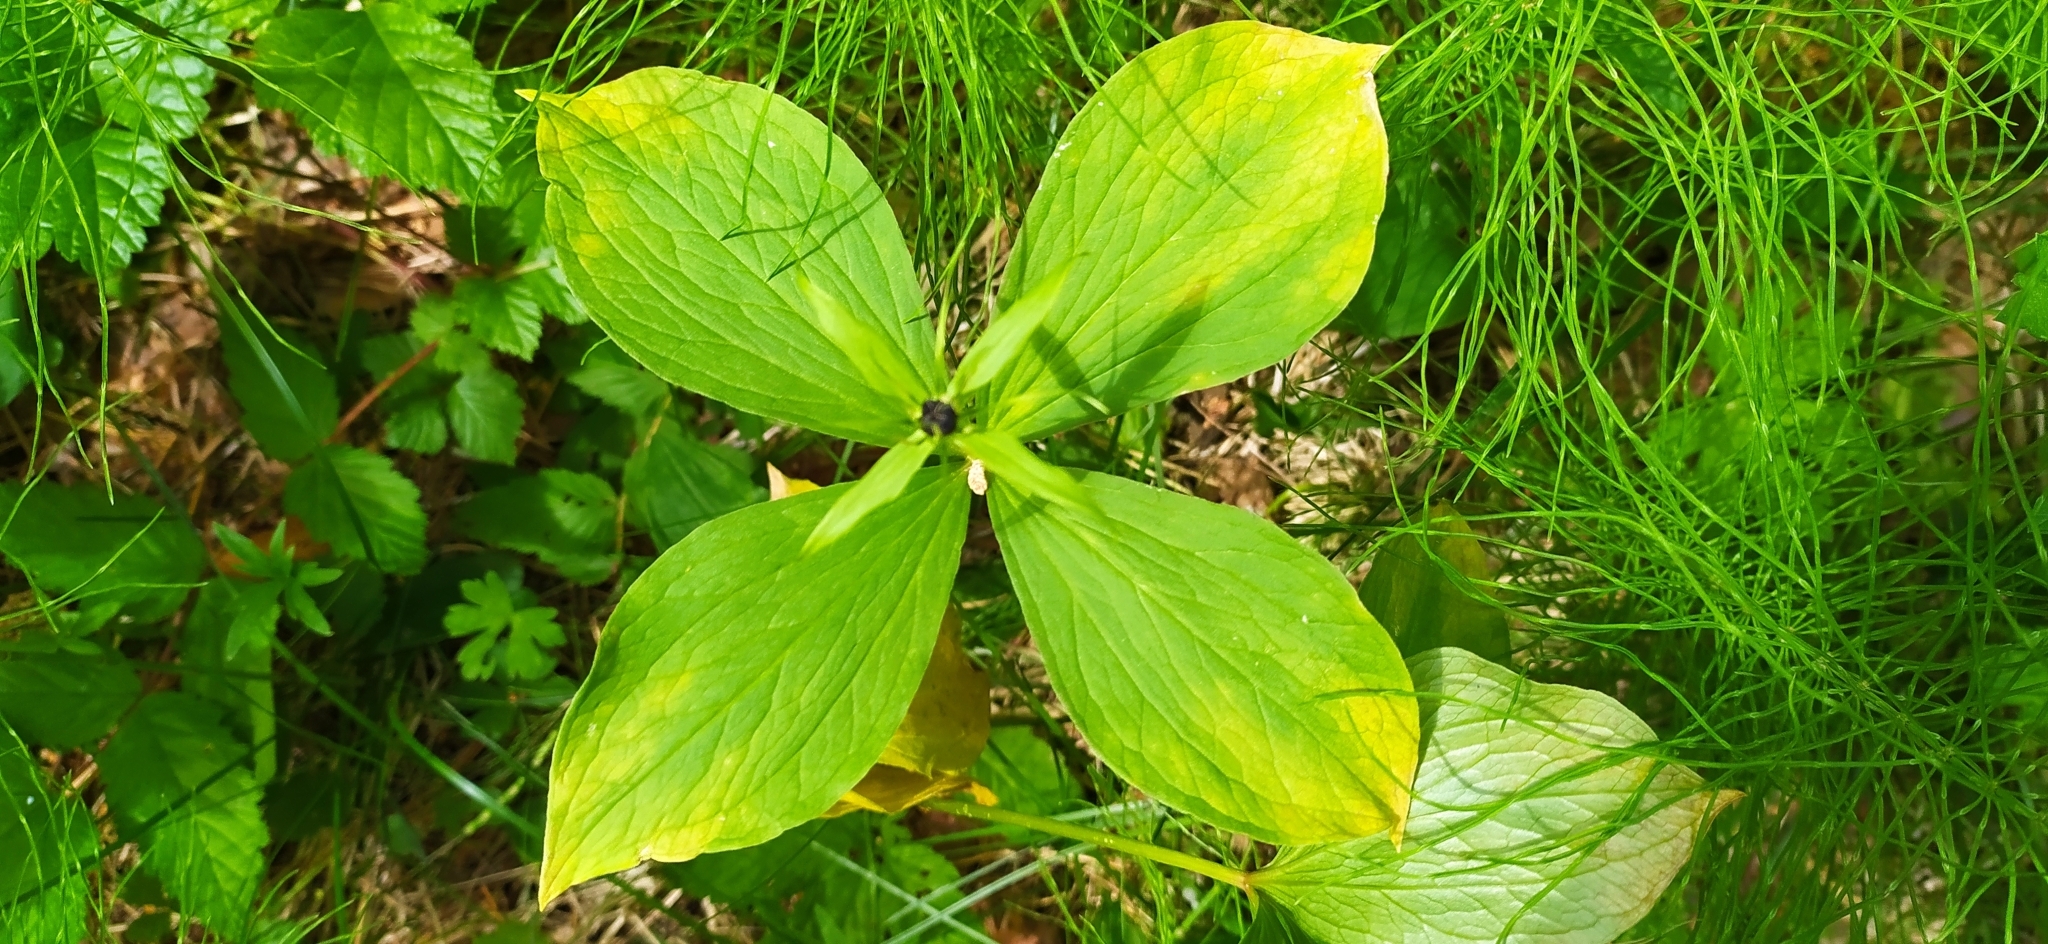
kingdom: Plantae
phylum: Tracheophyta
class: Liliopsida
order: Liliales
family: Melanthiaceae
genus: Paris
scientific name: Paris quadrifolia
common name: Herb-paris
